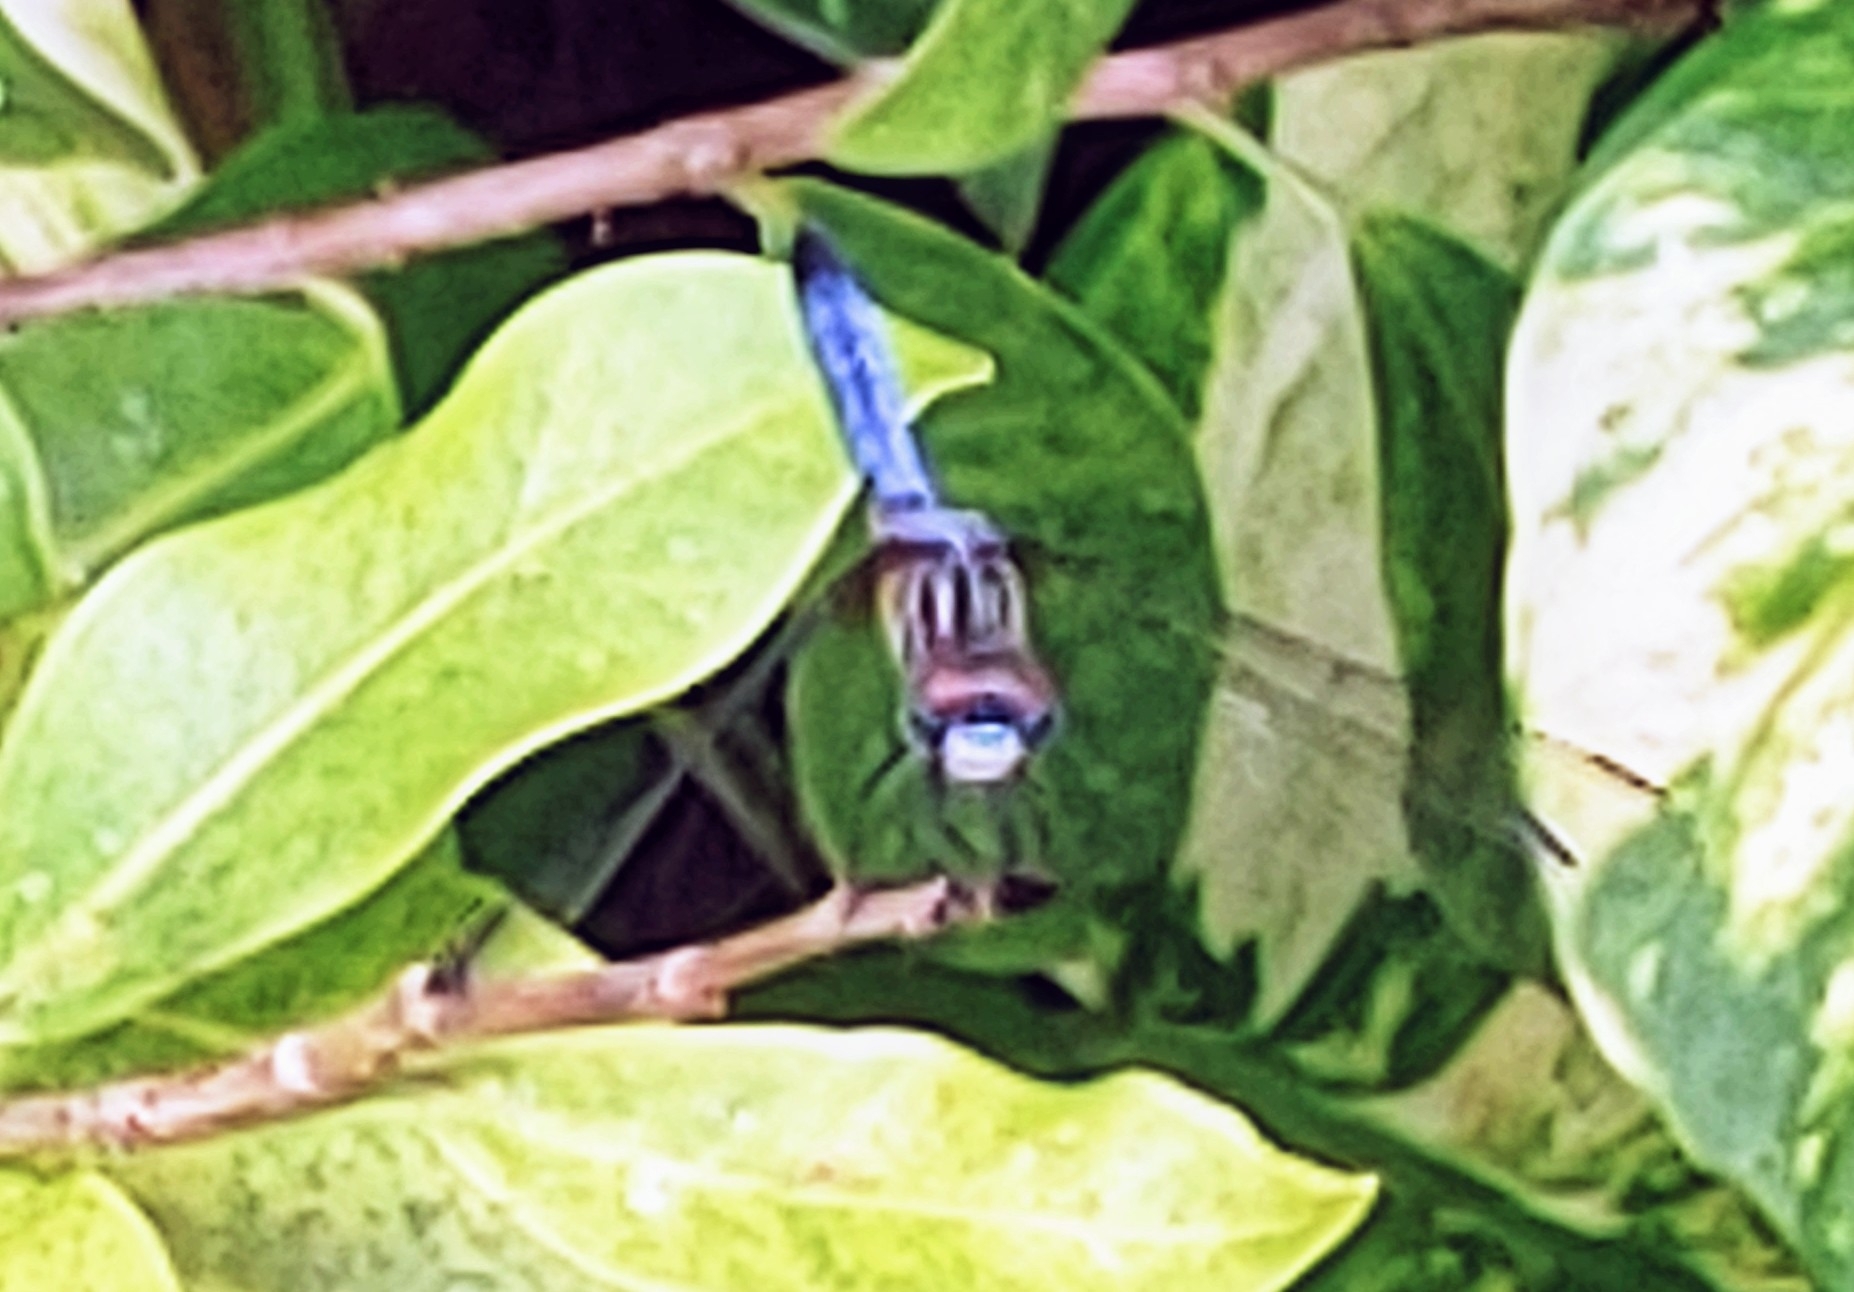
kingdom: Animalia
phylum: Arthropoda
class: Insecta
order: Odonata
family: Libellulidae
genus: Pachydiplax
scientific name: Pachydiplax longipennis
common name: Blue dasher
